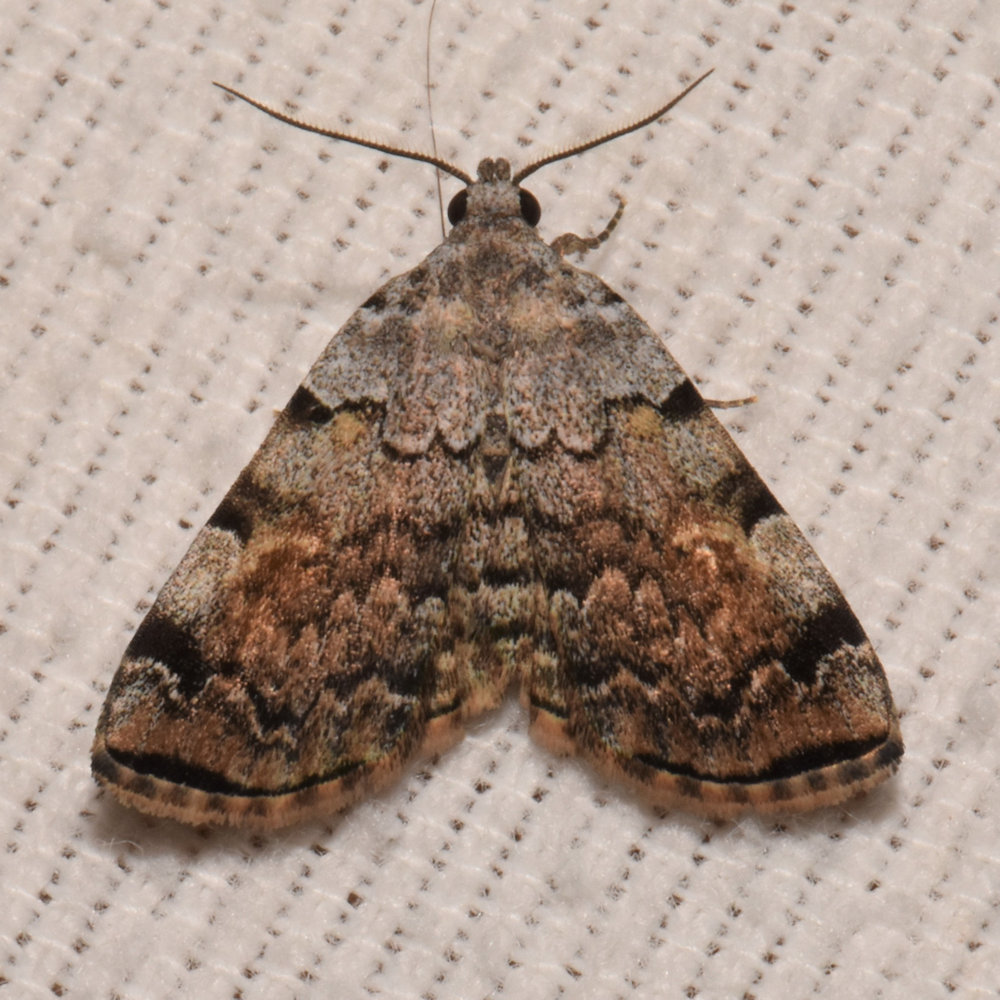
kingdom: Animalia
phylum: Arthropoda
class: Insecta
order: Lepidoptera
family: Erebidae
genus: Idia
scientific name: Idia americalis
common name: American idia moth
